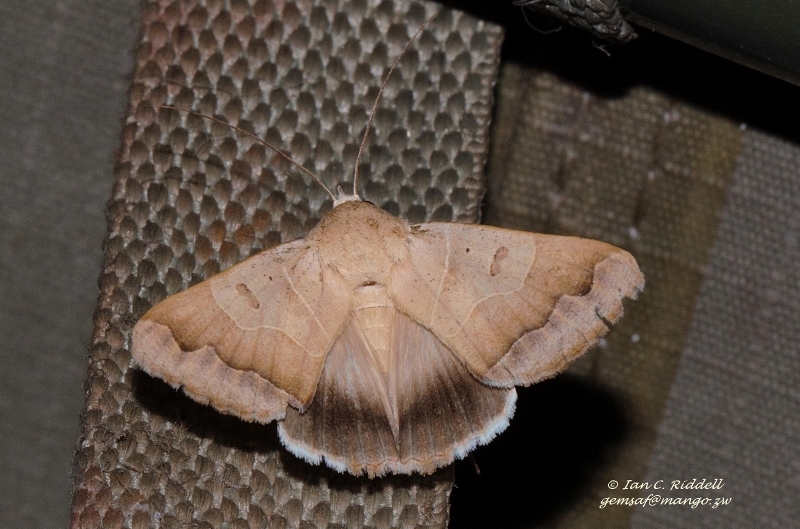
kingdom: Animalia
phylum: Arthropoda
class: Insecta
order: Lepidoptera
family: Erebidae
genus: Ophiusa
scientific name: Ophiusa mejanesi
